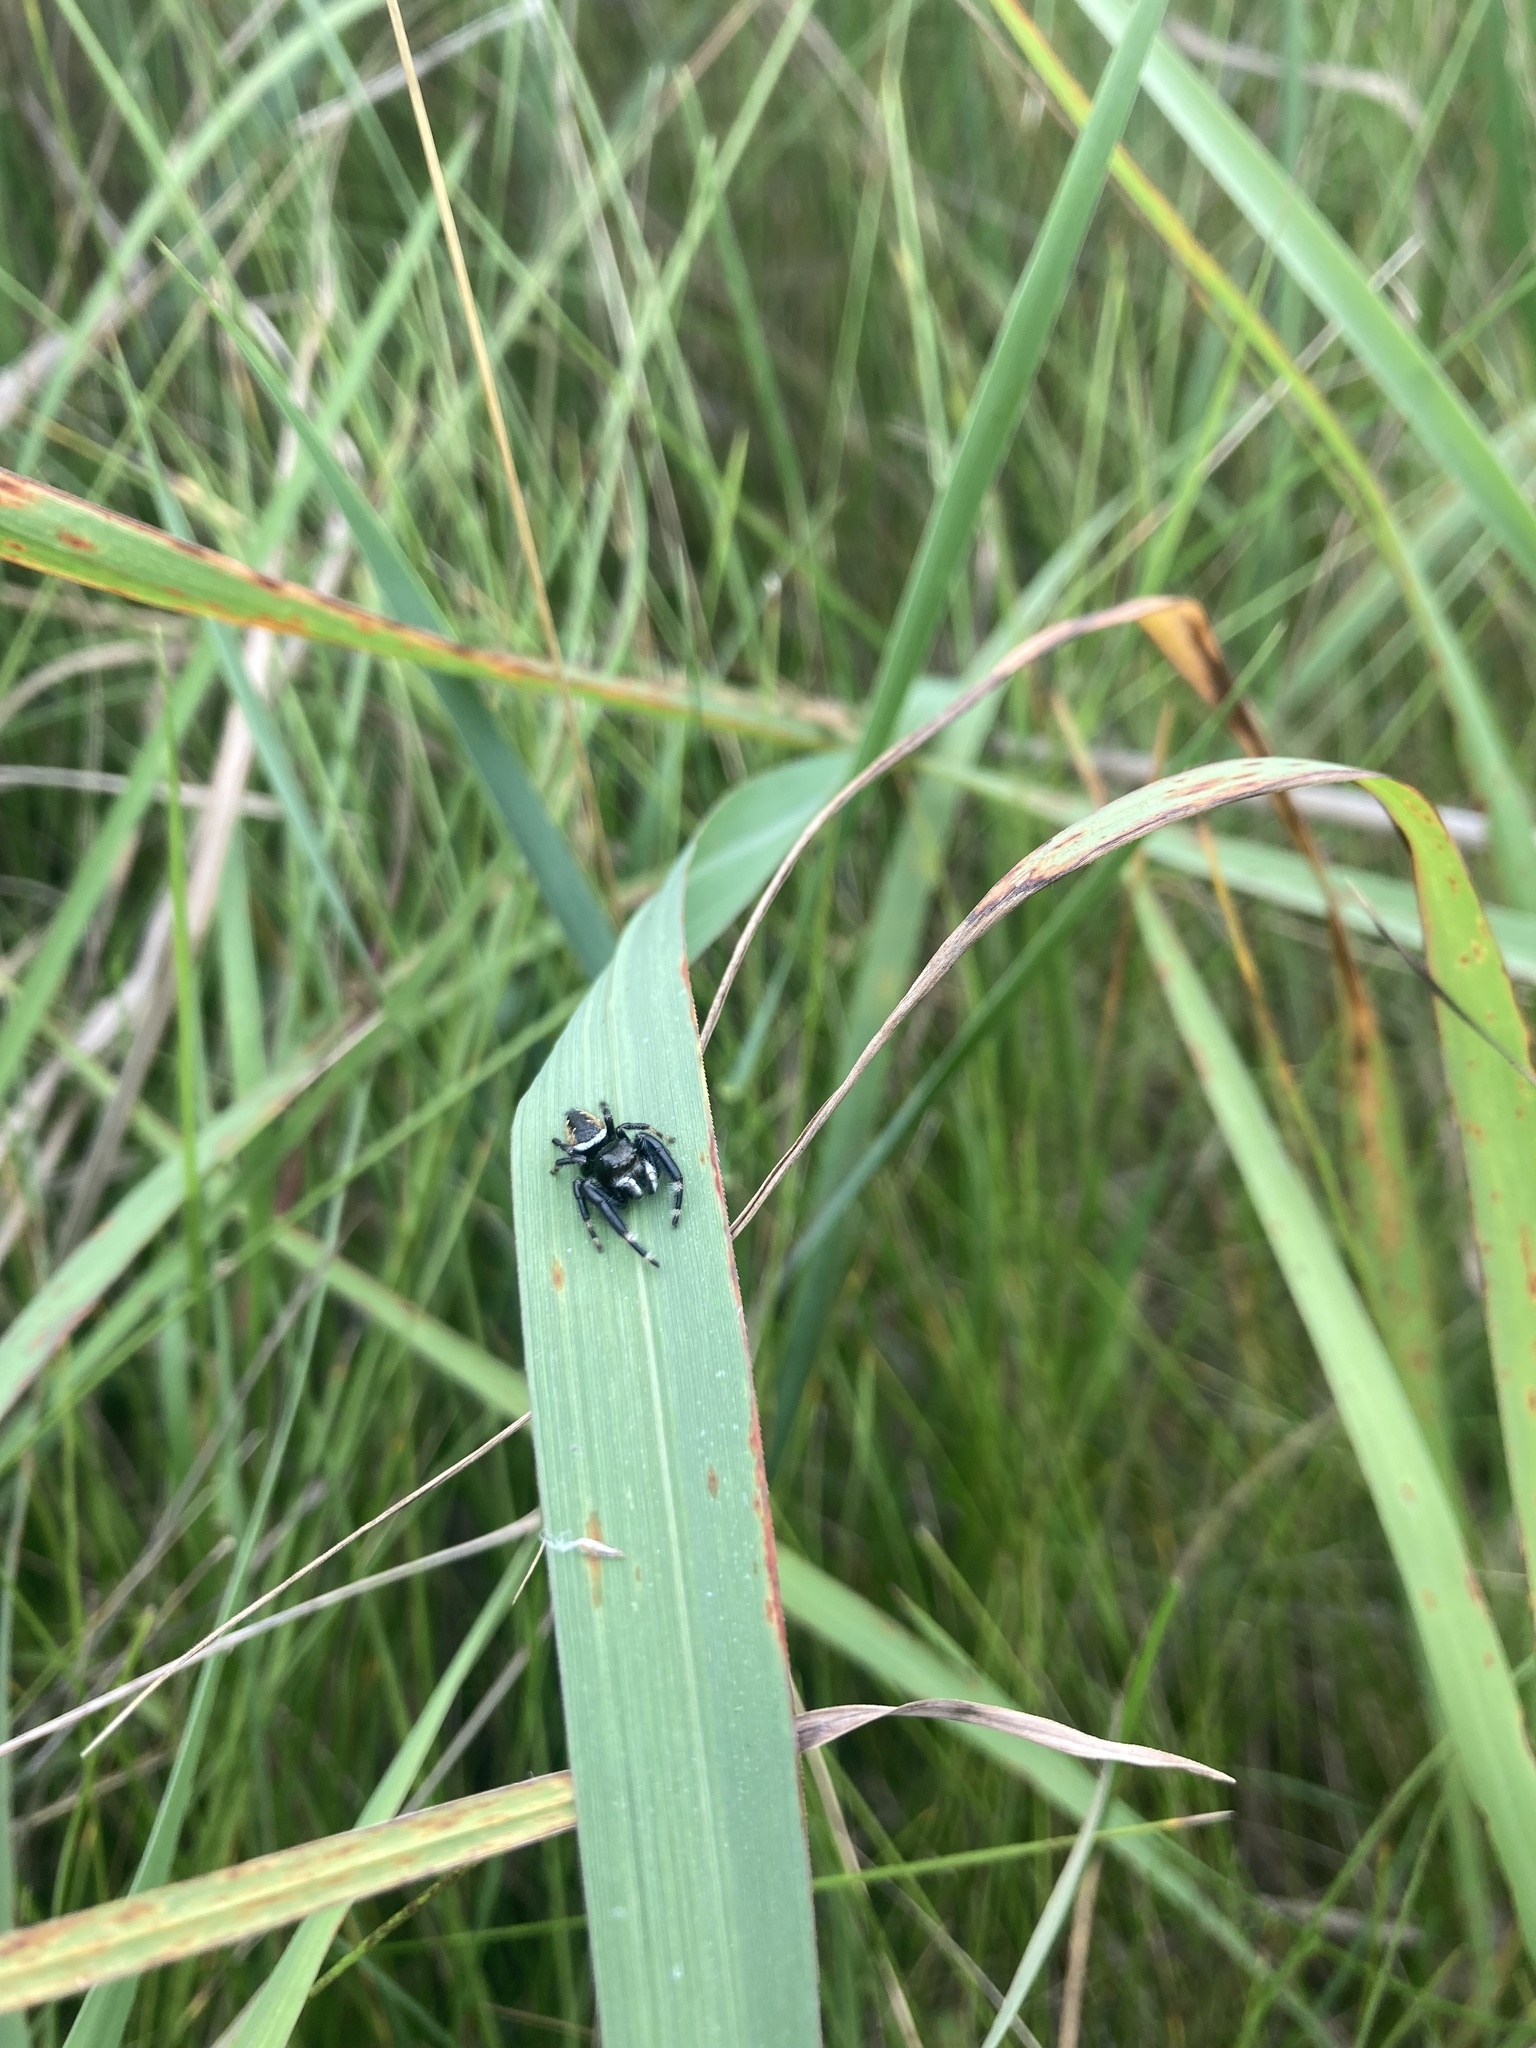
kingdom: Animalia
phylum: Arthropoda
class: Arachnida
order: Araneae
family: Salticidae
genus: Phidippus
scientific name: Phidippus clarus
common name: Brilliant jumping spider
